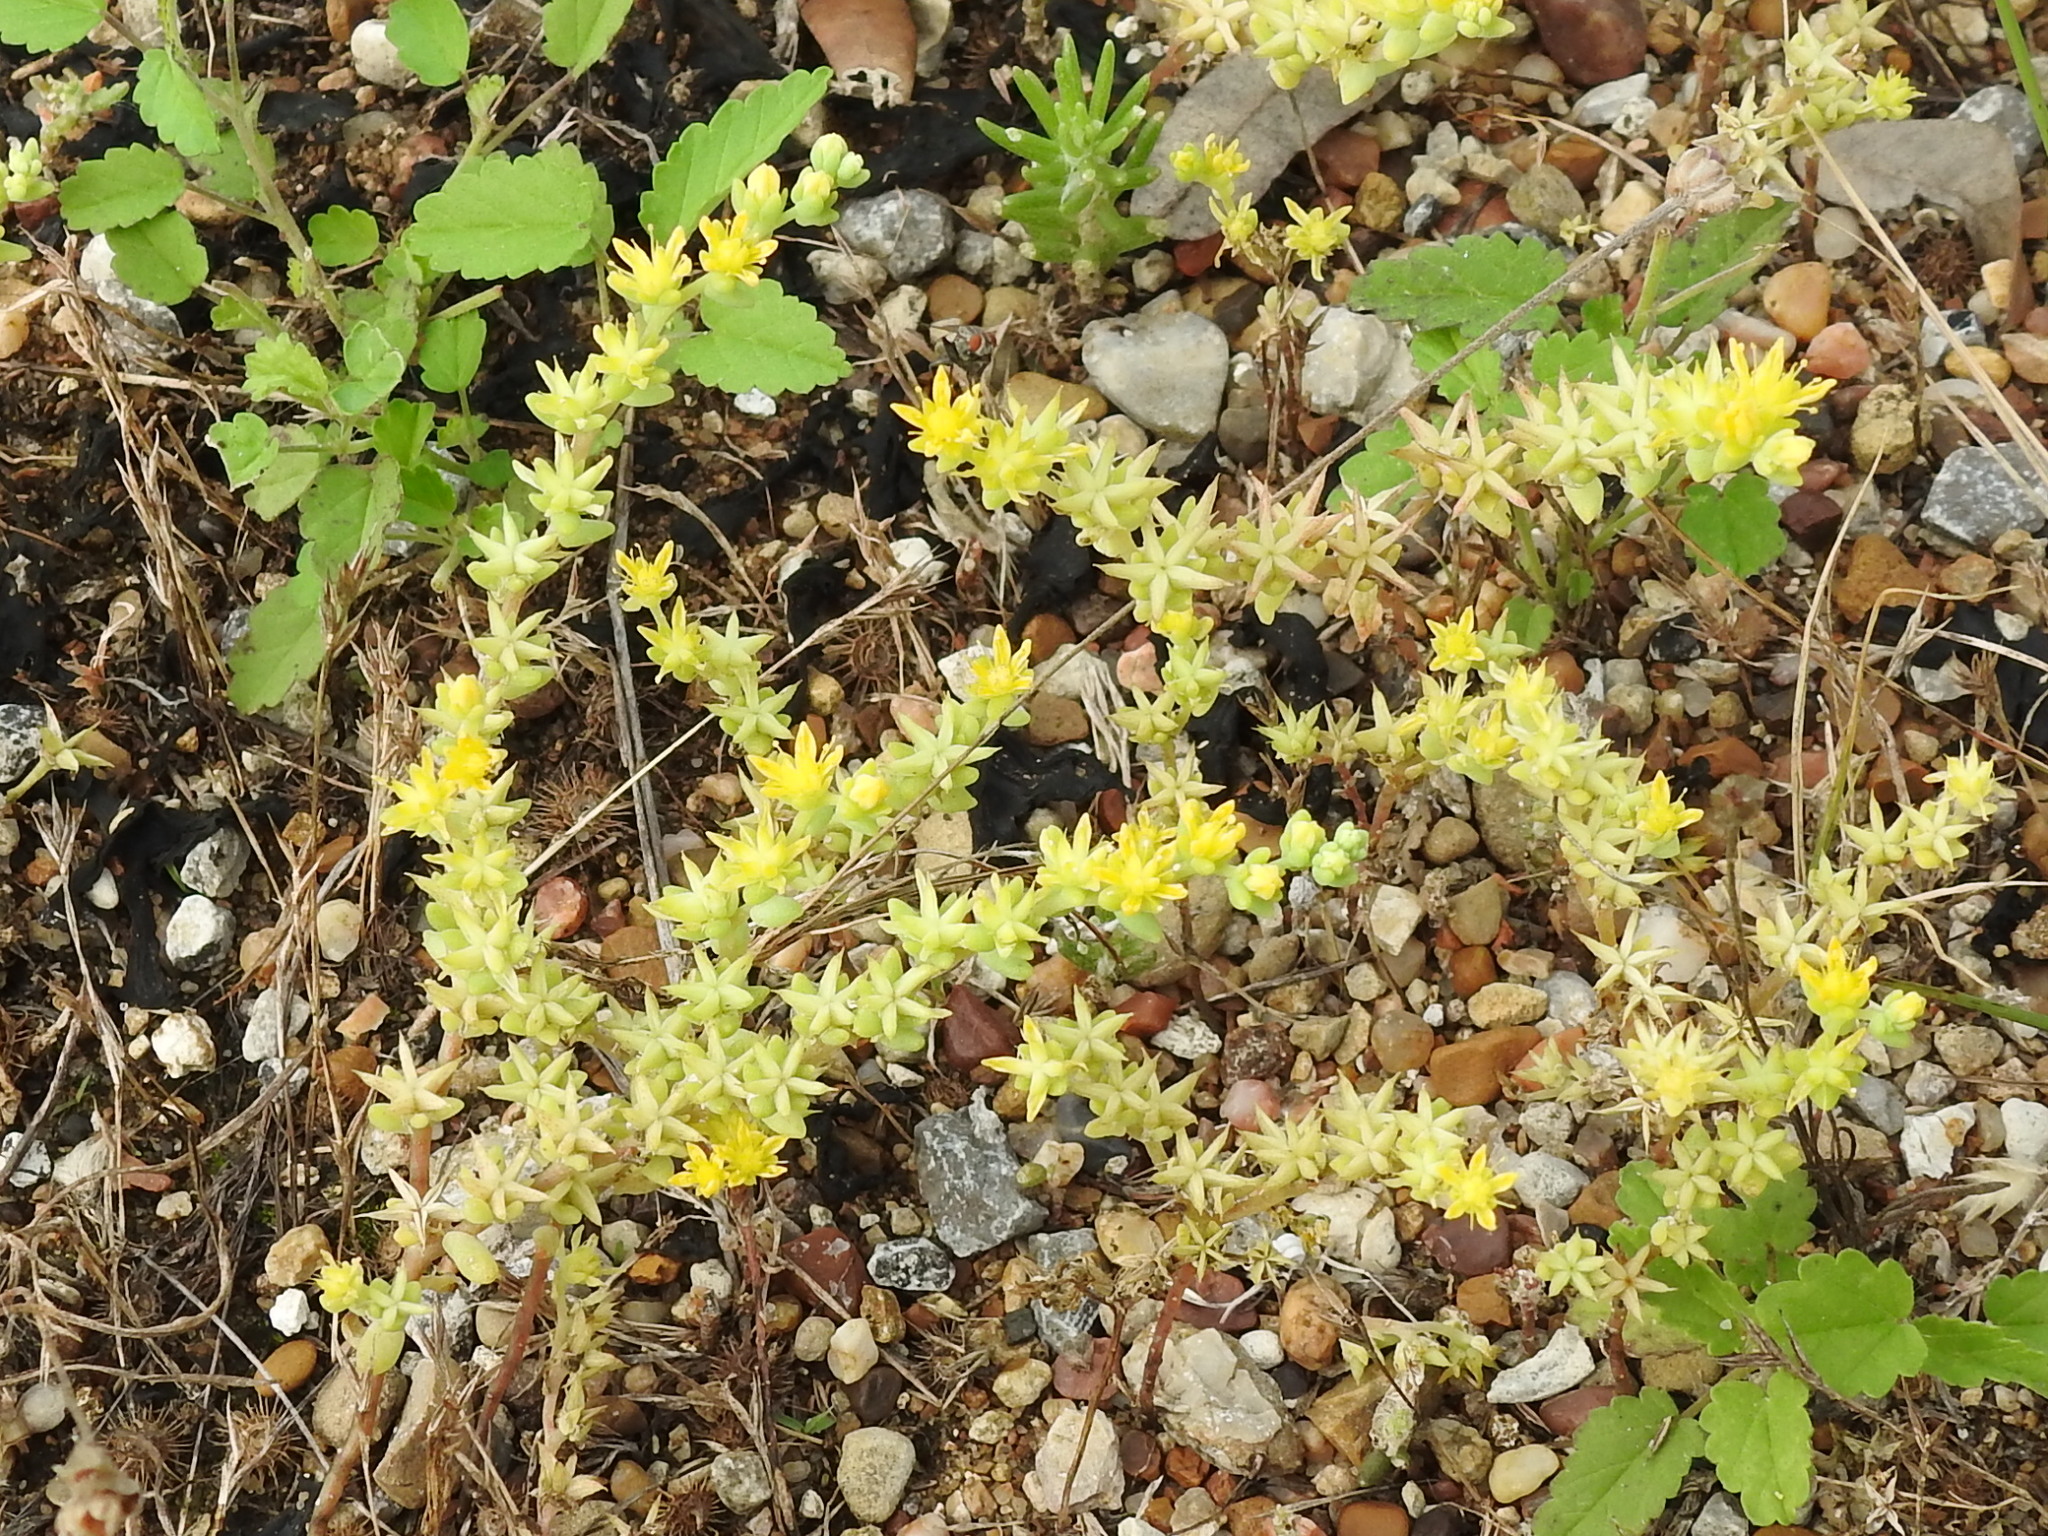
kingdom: Plantae
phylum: Tracheophyta
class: Magnoliopsida
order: Saxifragales
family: Crassulaceae
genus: Sedum
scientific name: Sedum nuttallii
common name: Yellow stonecrop
